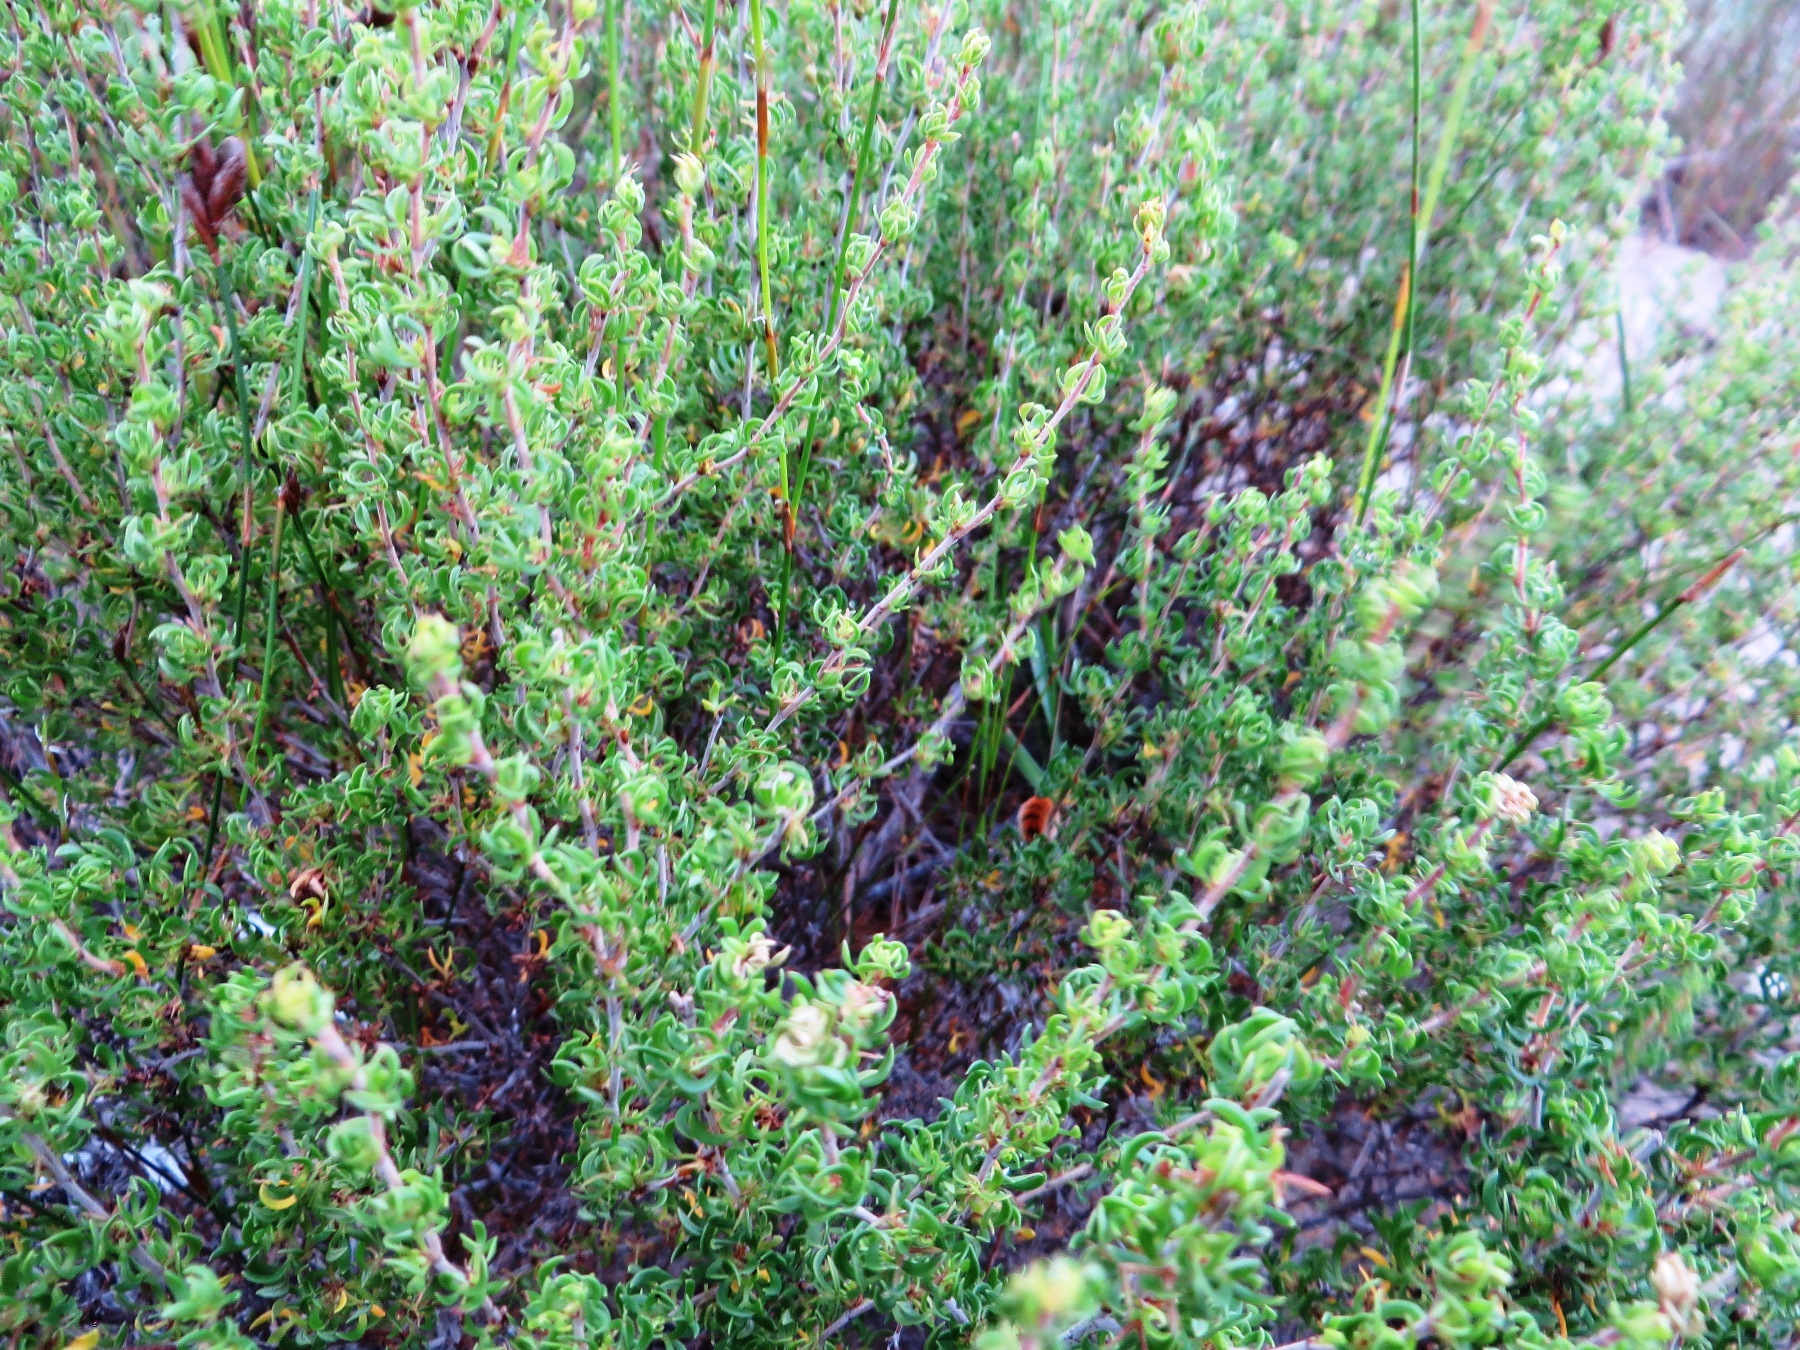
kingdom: Plantae
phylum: Tracheophyta
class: Magnoliopsida
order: Rosales
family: Rosaceae
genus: Cliffortia
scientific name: Cliffortia falcata
